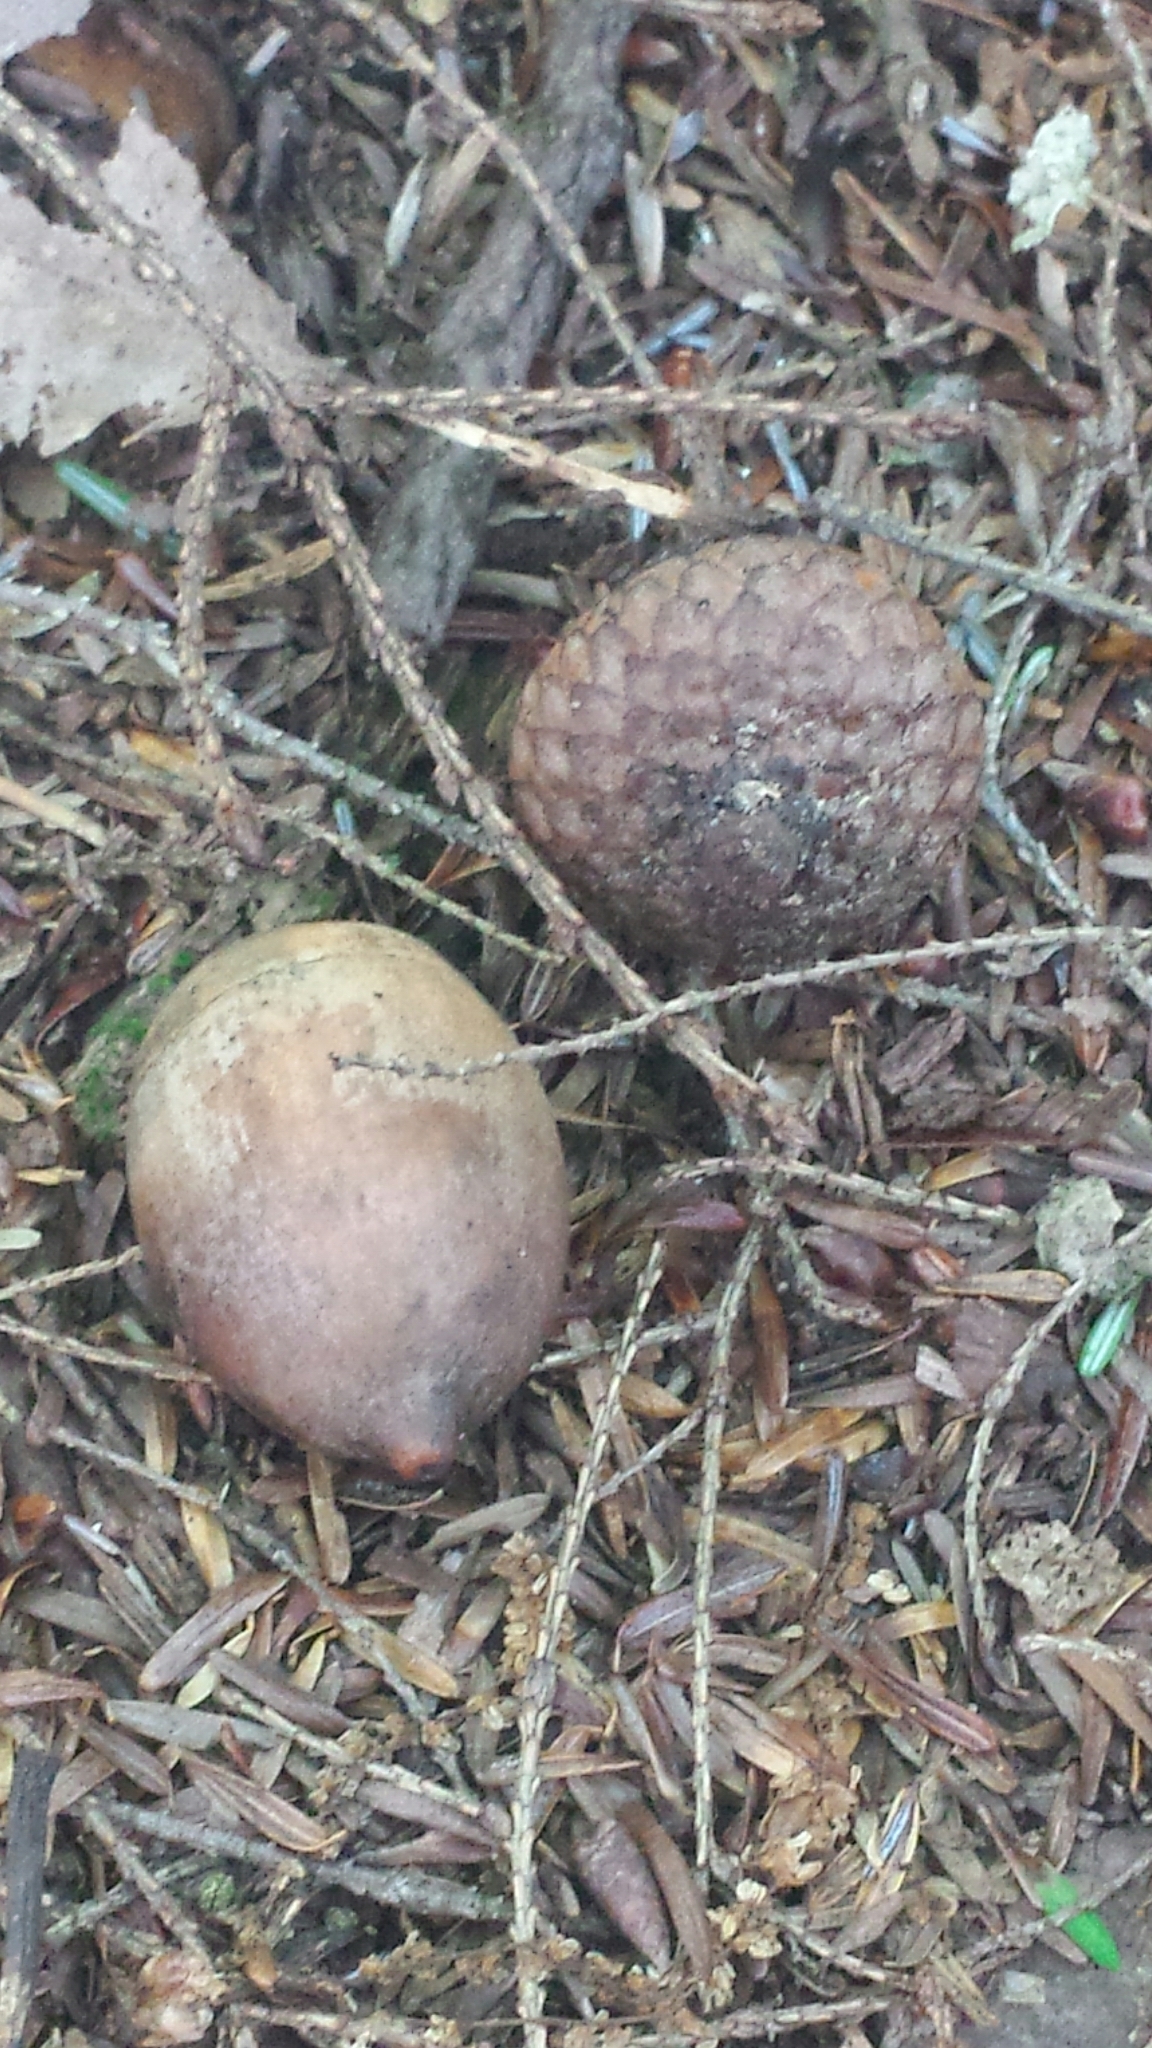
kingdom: Plantae
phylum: Tracheophyta
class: Magnoliopsida
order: Fagales
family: Fagaceae
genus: Quercus
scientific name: Quercus rubra
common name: Red oak
